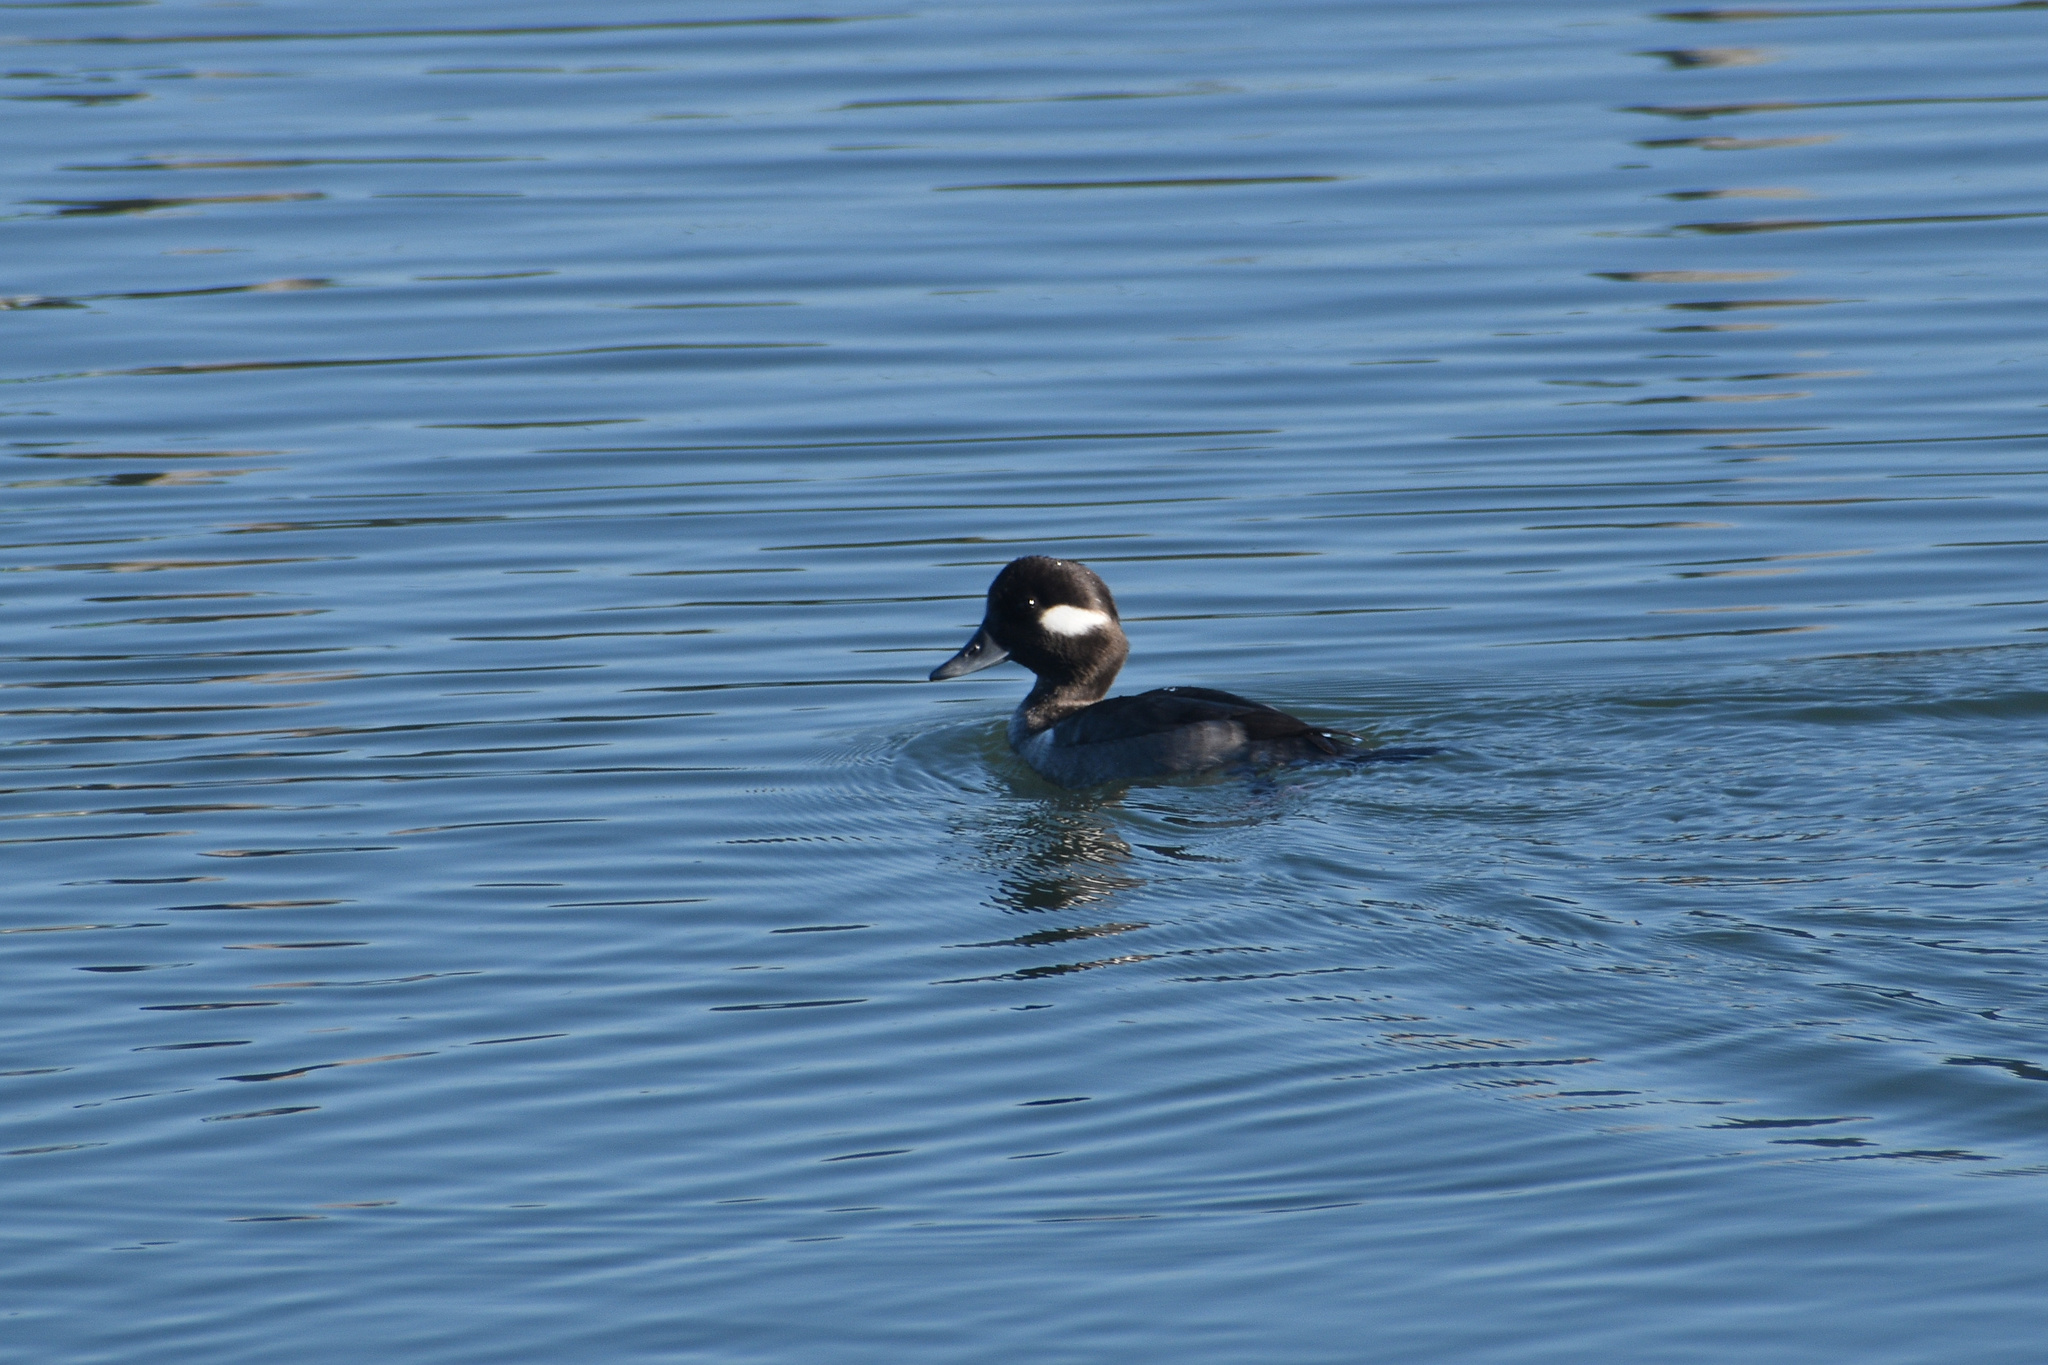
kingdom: Animalia
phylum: Chordata
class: Aves
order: Anseriformes
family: Anatidae
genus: Bucephala
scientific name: Bucephala albeola
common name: Bufflehead
